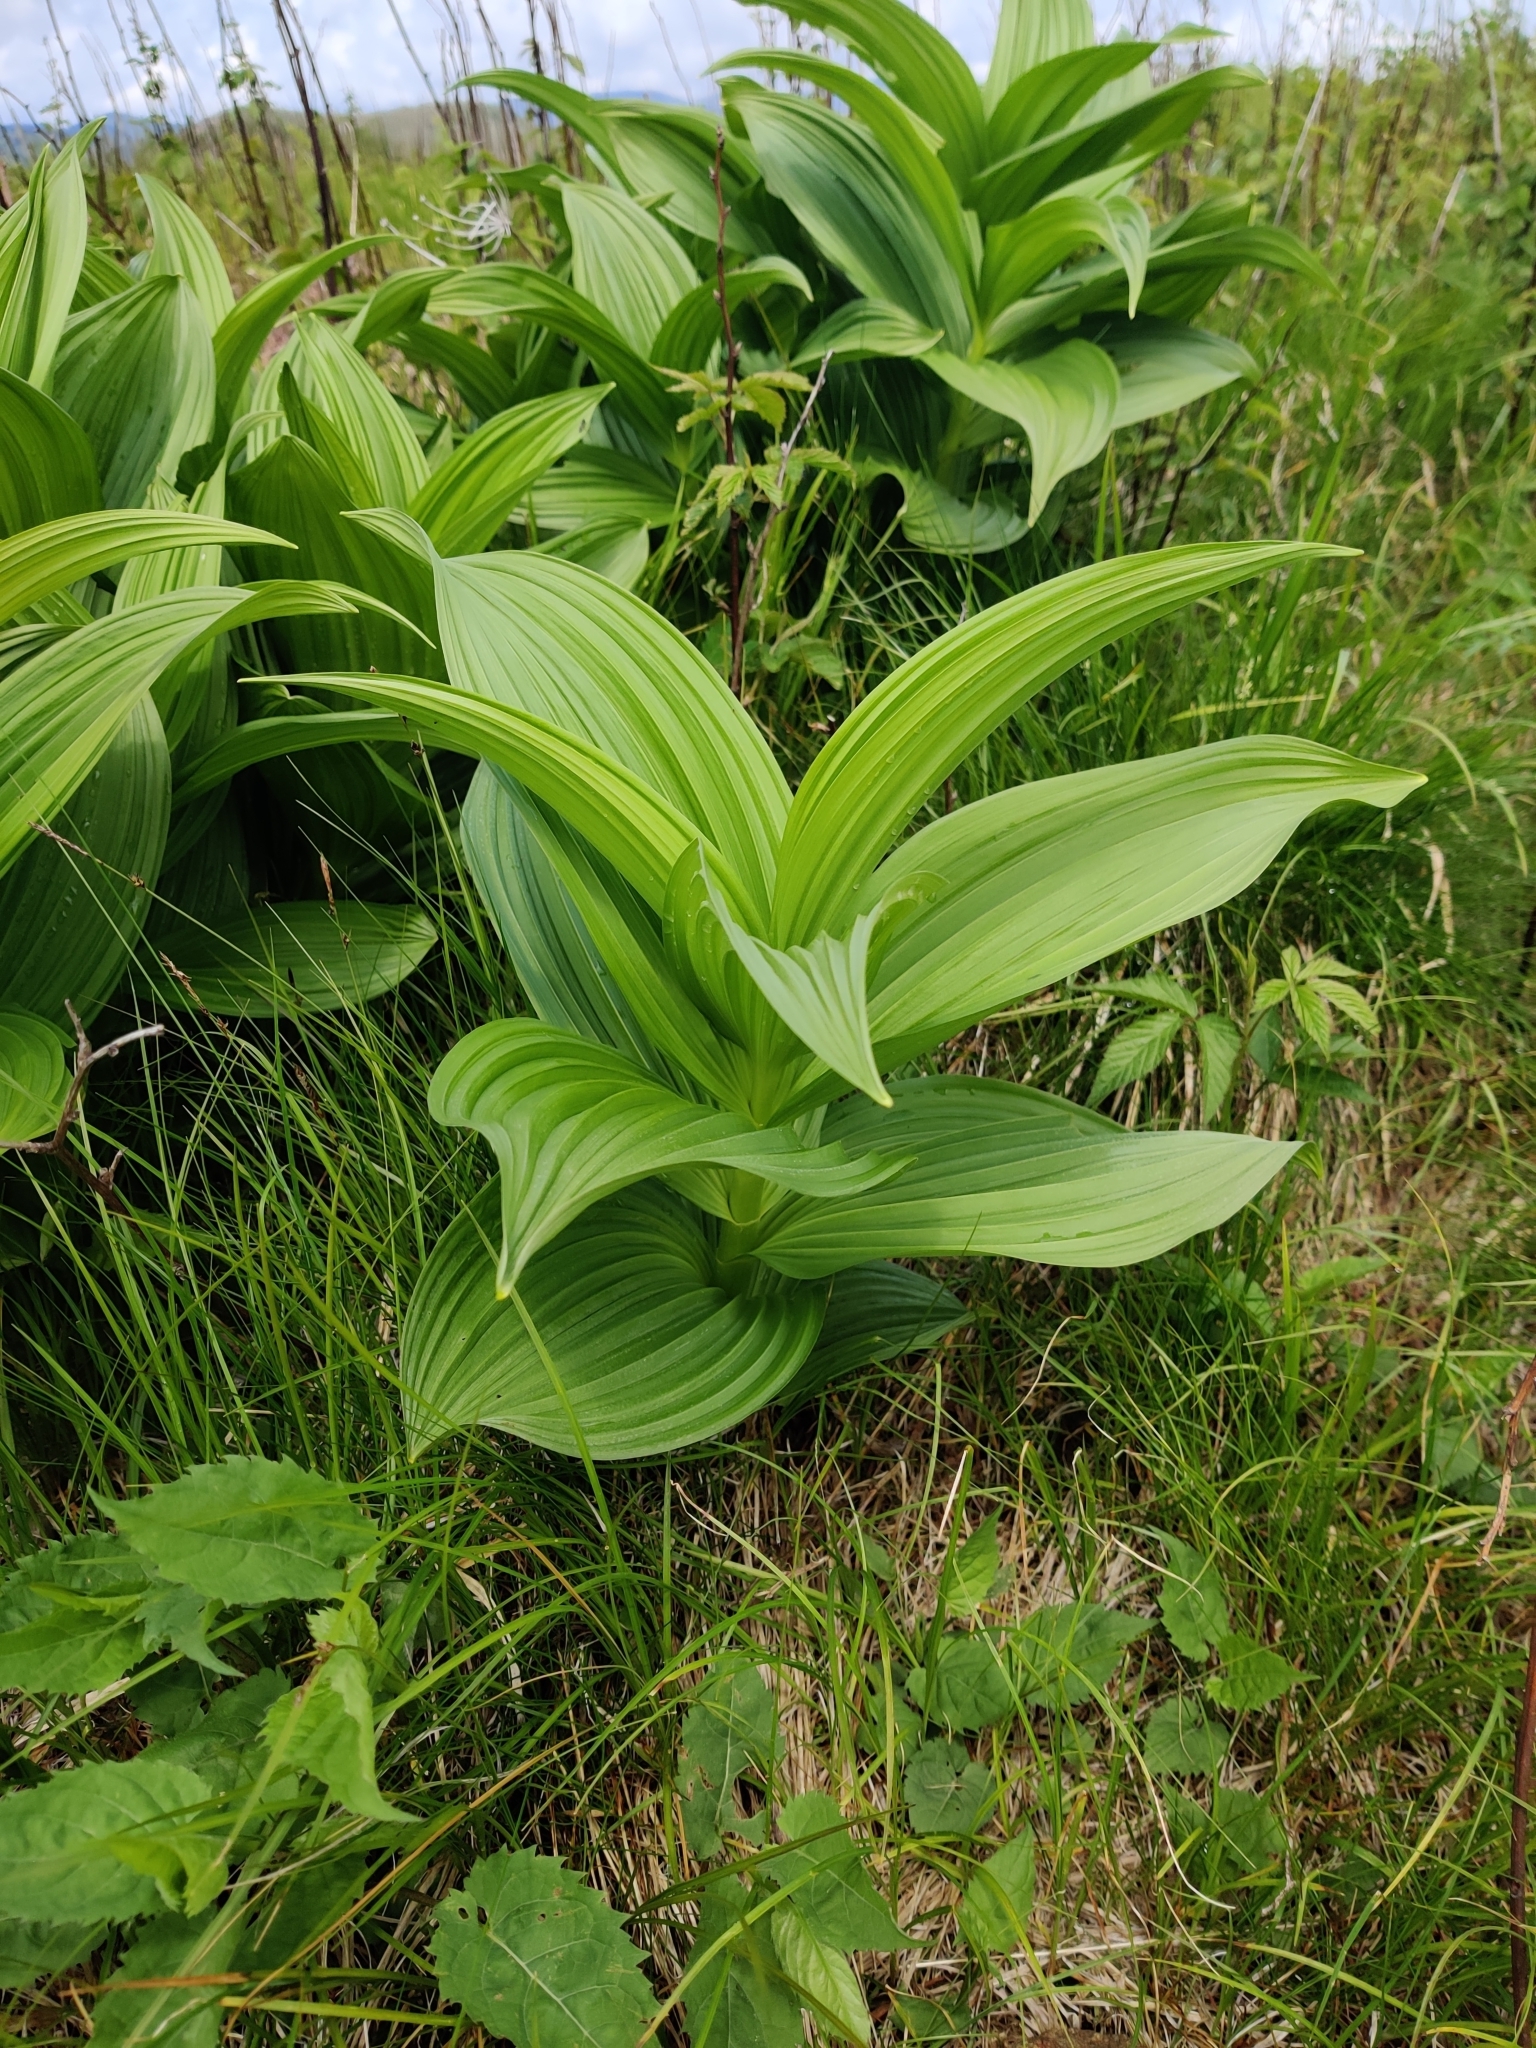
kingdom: Plantae
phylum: Tracheophyta
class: Liliopsida
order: Liliales
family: Melanthiaceae
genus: Veratrum
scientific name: Veratrum viride
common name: American false hellebore
